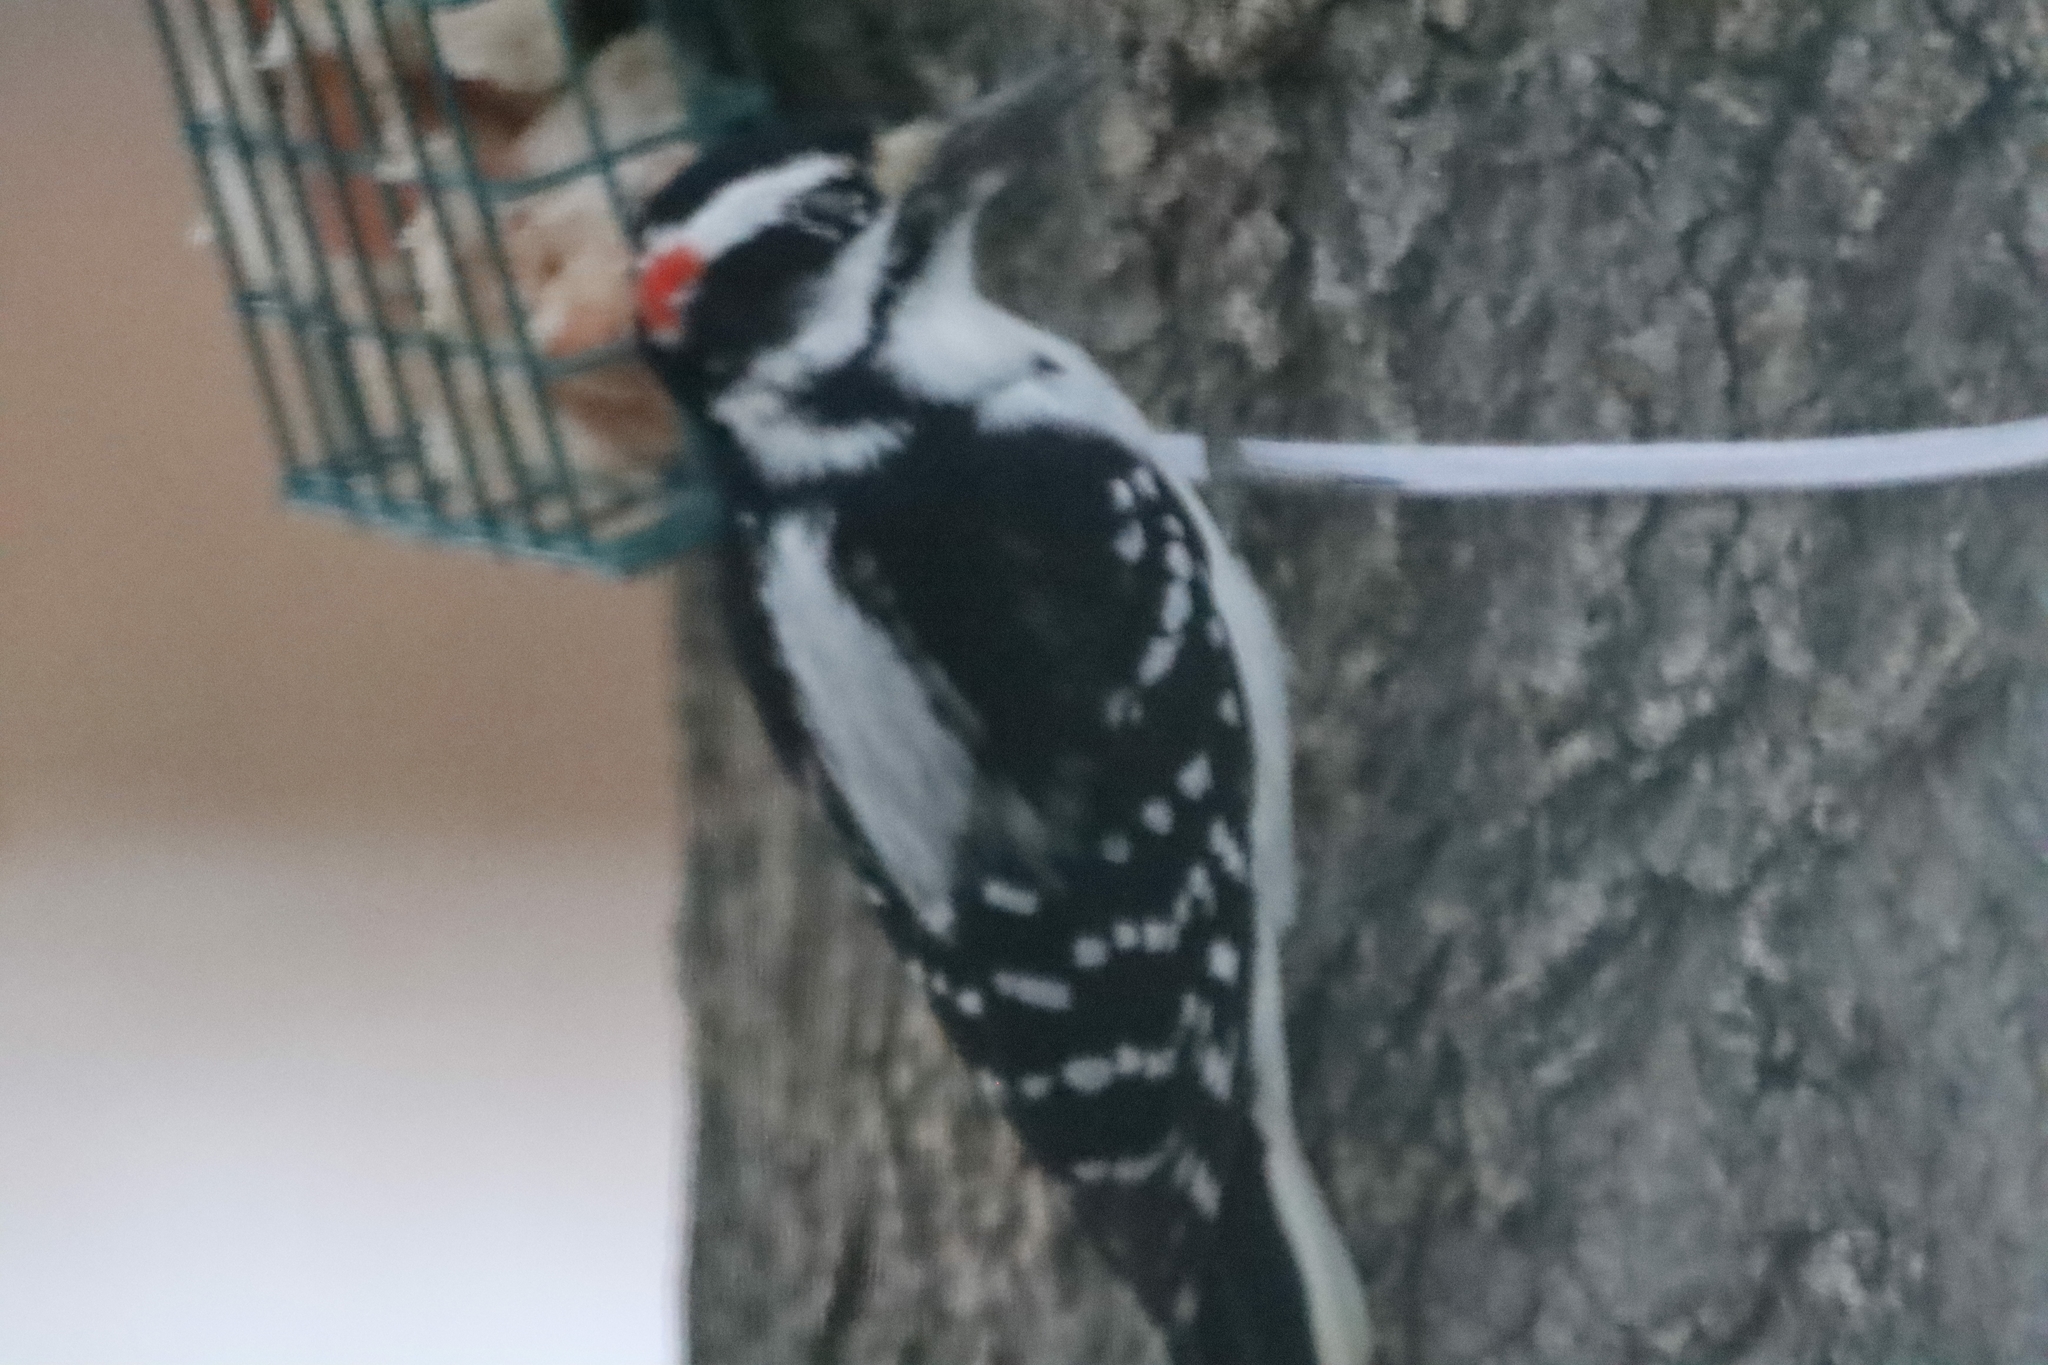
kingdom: Animalia
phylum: Chordata
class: Aves
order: Piciformes
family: Picidae
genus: Leuconotopicus
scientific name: Leuconotopicus villosus
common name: Hairy woodpecker
